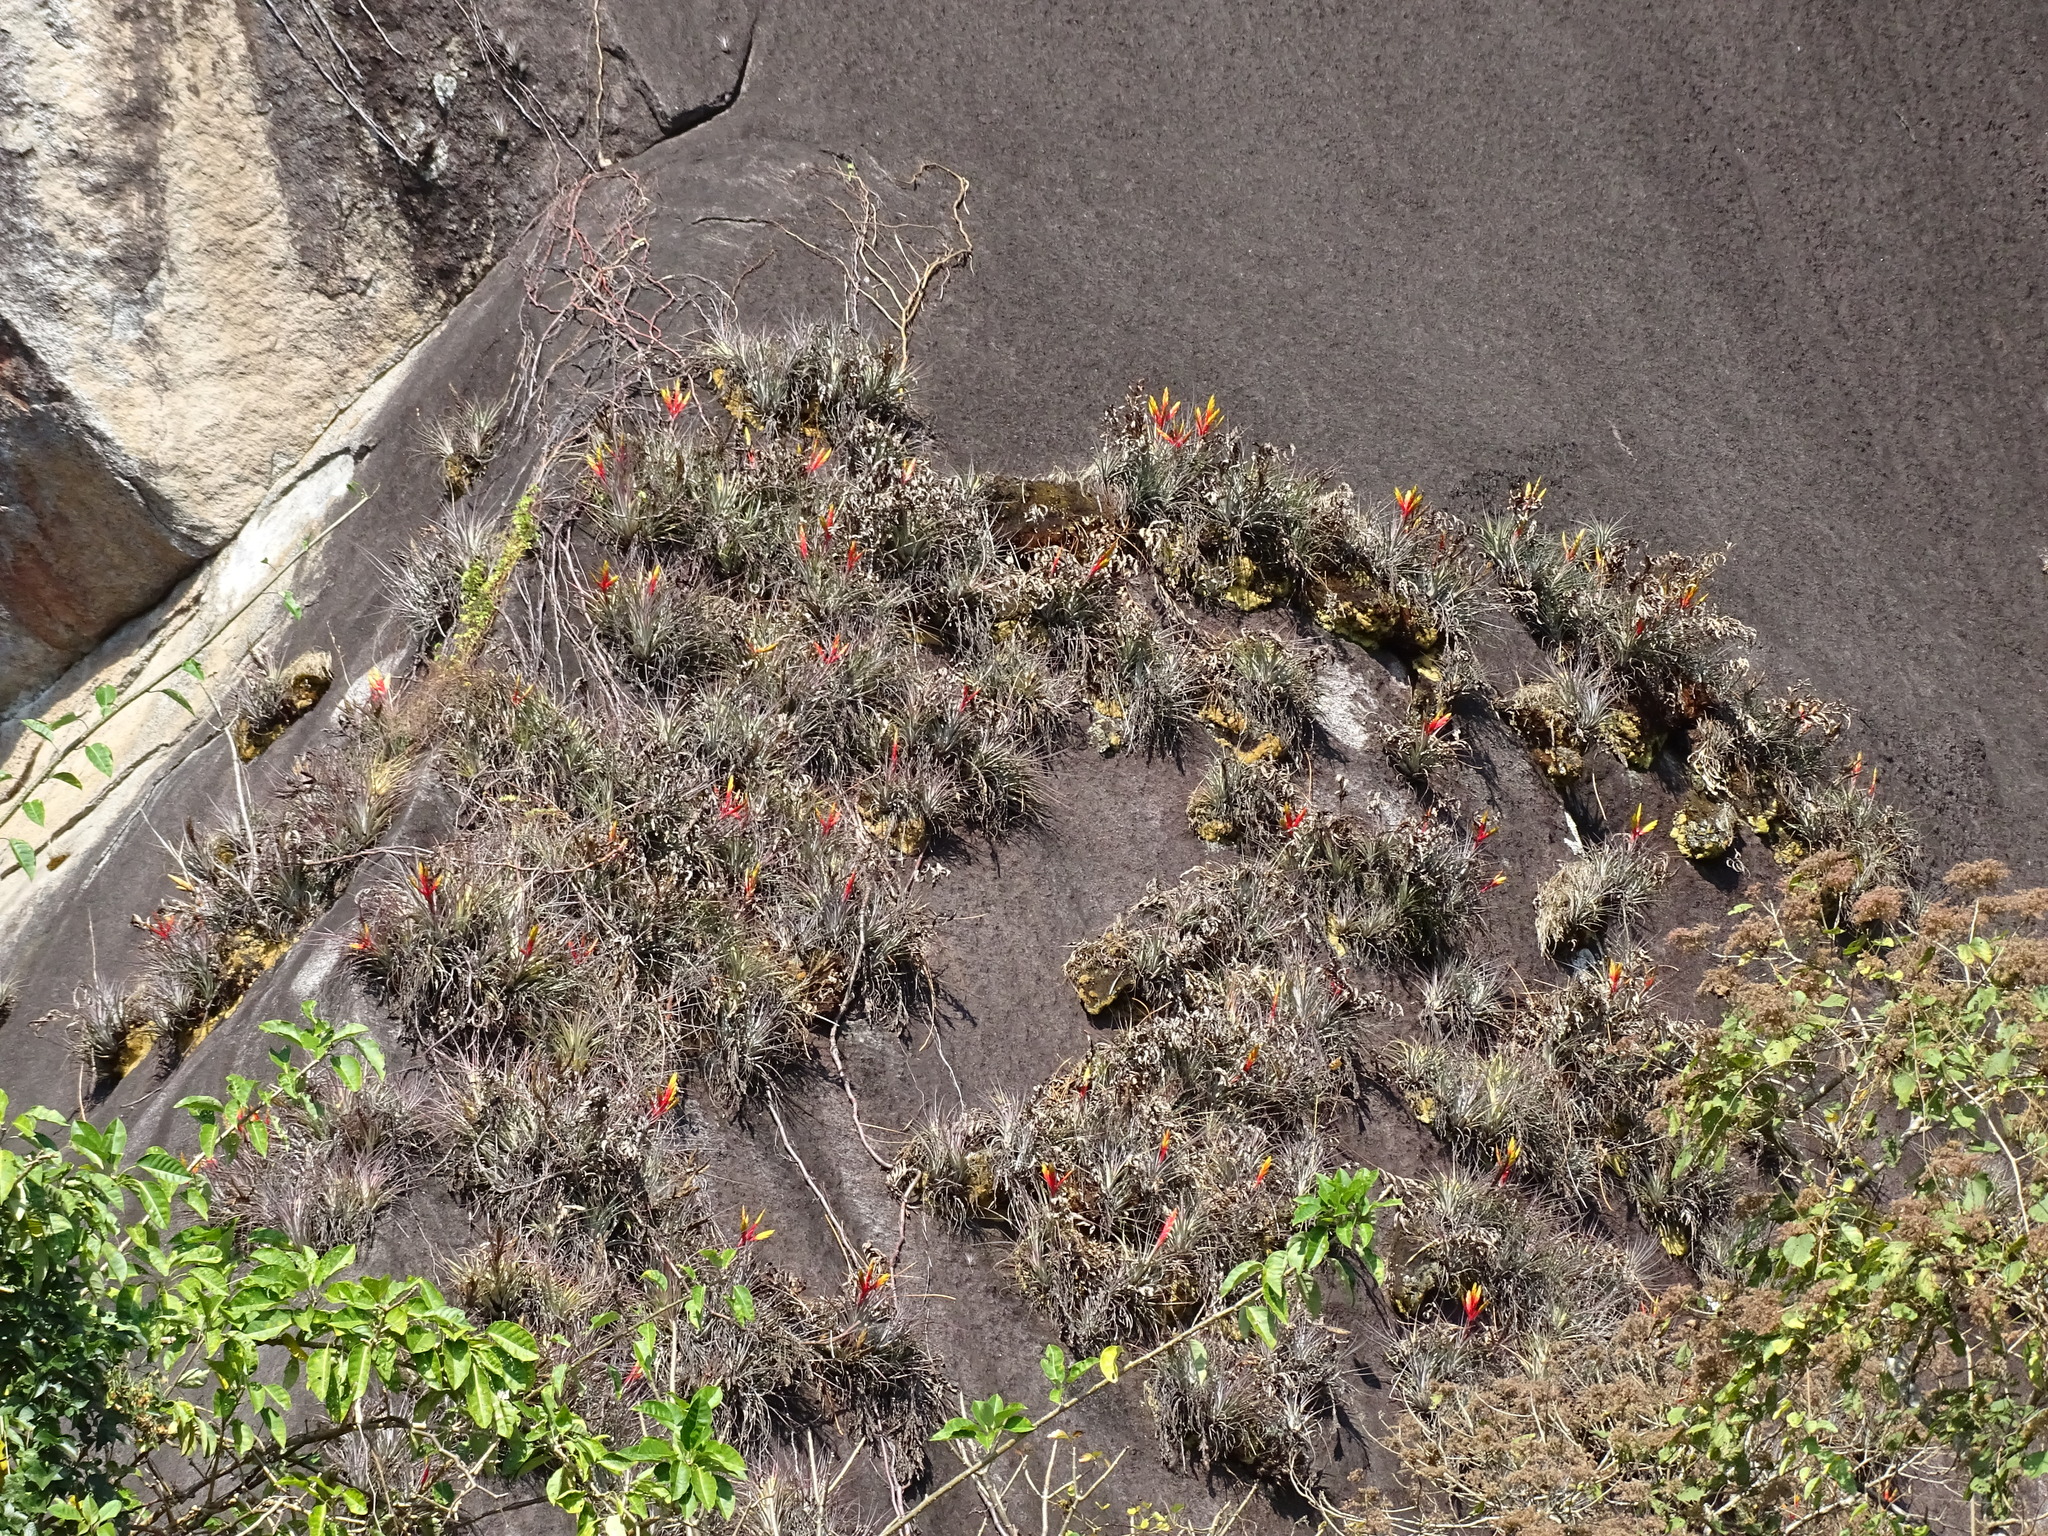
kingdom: Plantae
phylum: Tracheophyta
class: Liliopsida
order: Poales
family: Bromeliaceae
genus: Tillandsia
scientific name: Tillandsia fasciculata
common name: Giant airplant
